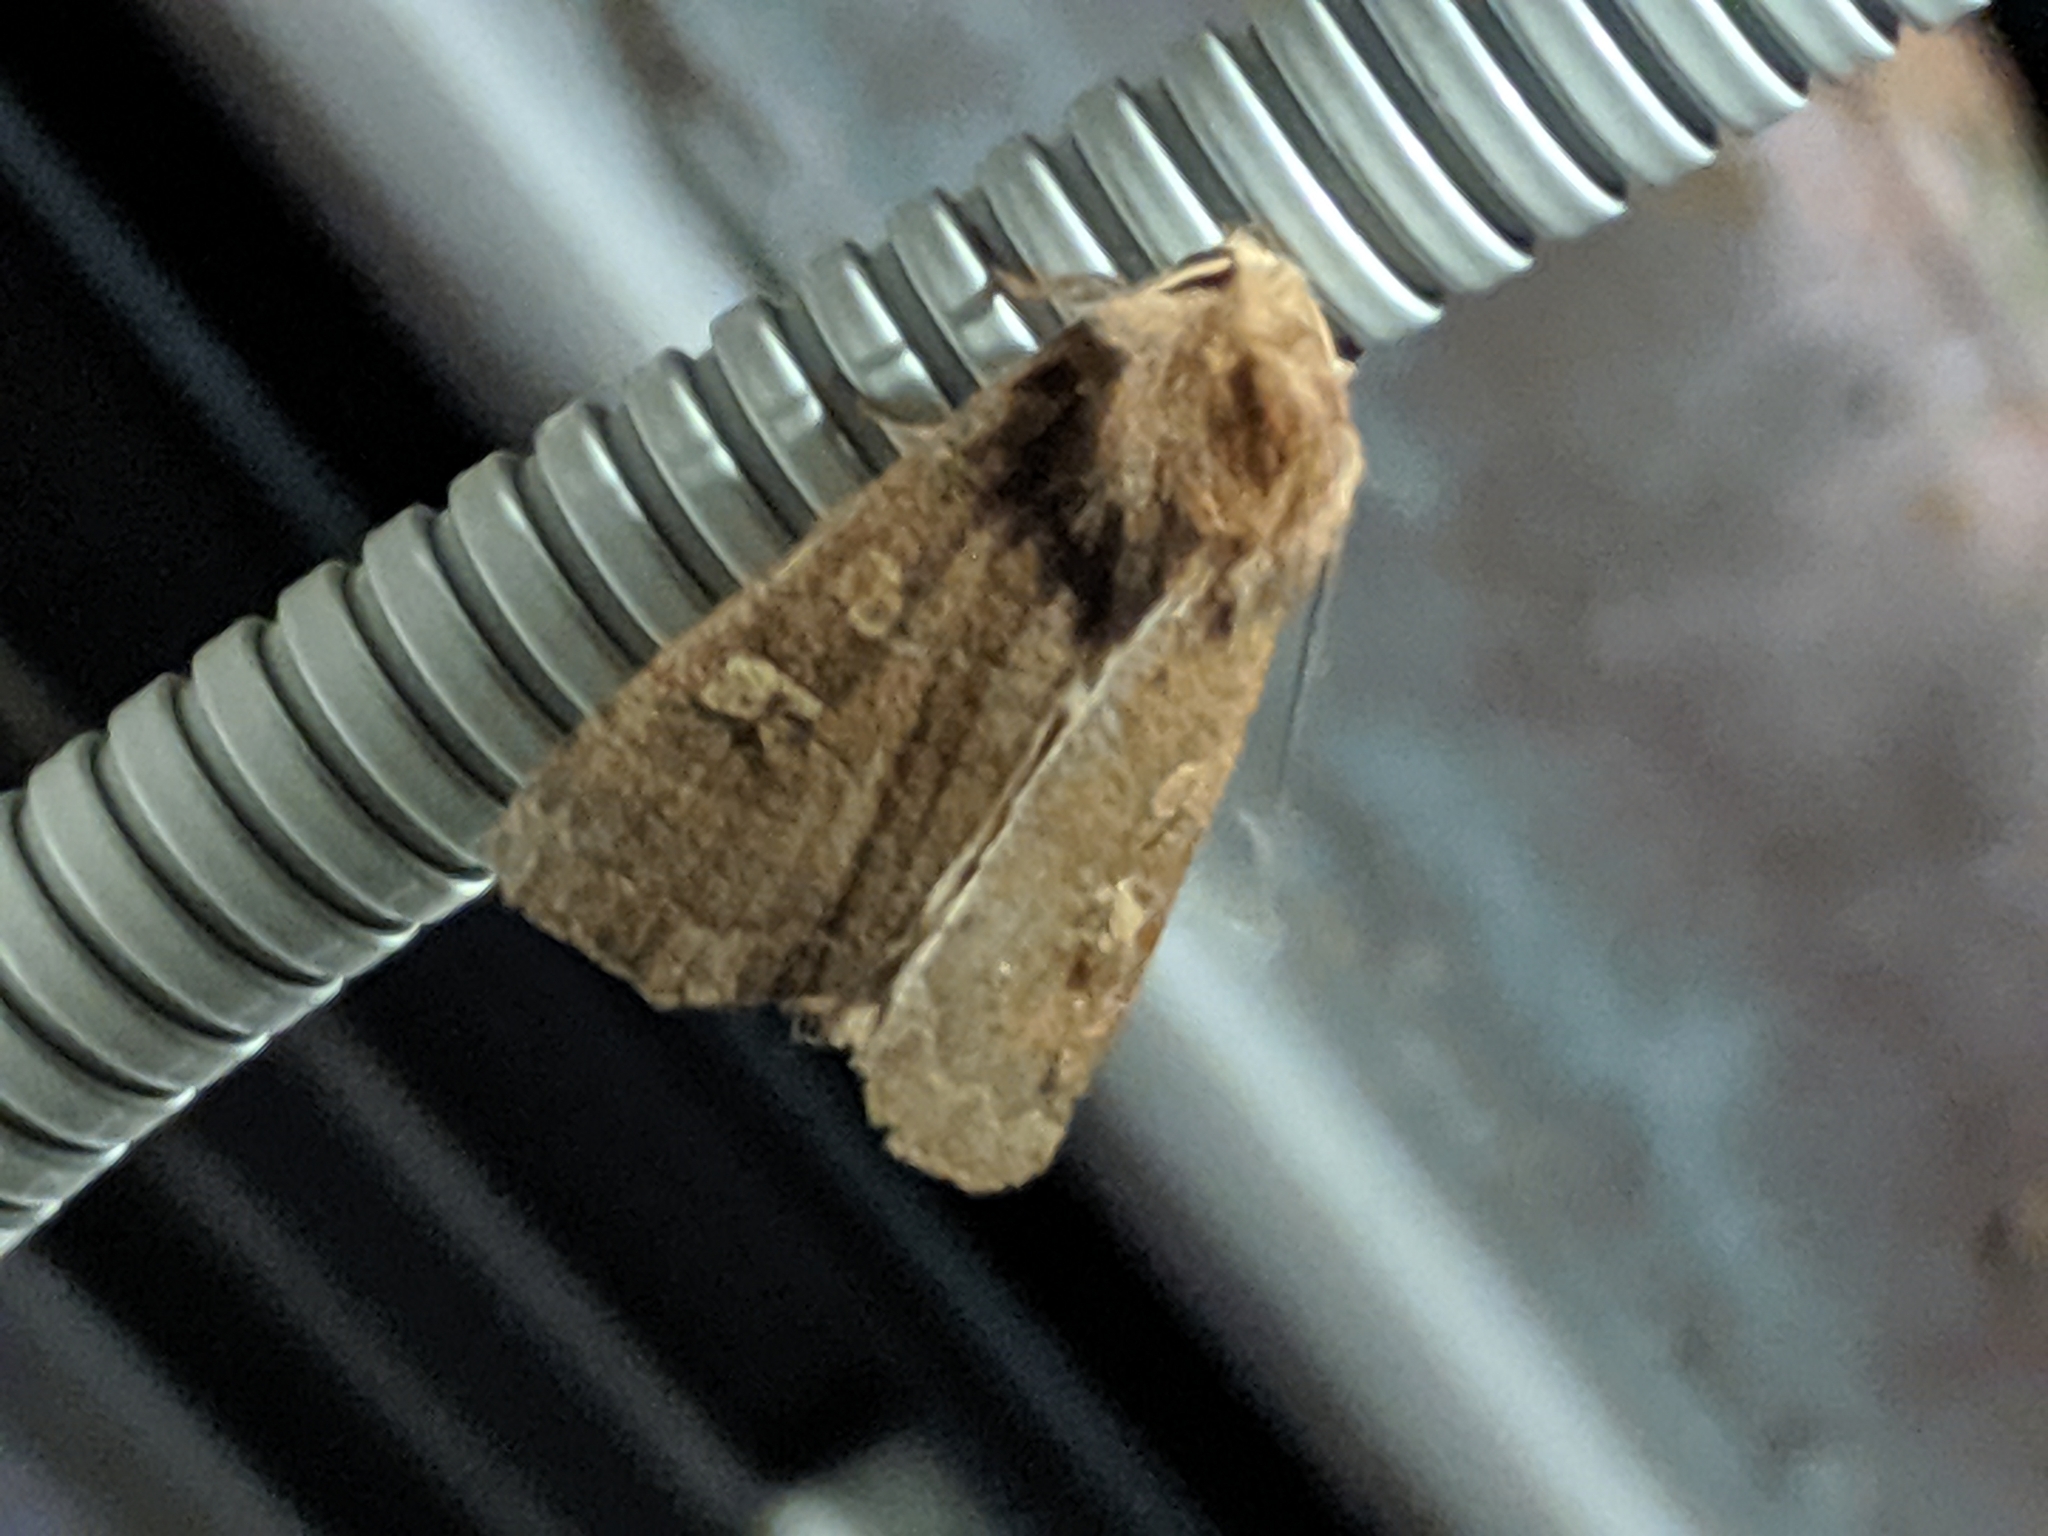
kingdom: Animalia
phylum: Arthropoda
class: Insecta
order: Lepidoptera
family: Noctuidae
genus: Xestia
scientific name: Xestia xanthographa
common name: Square-spot rustic
